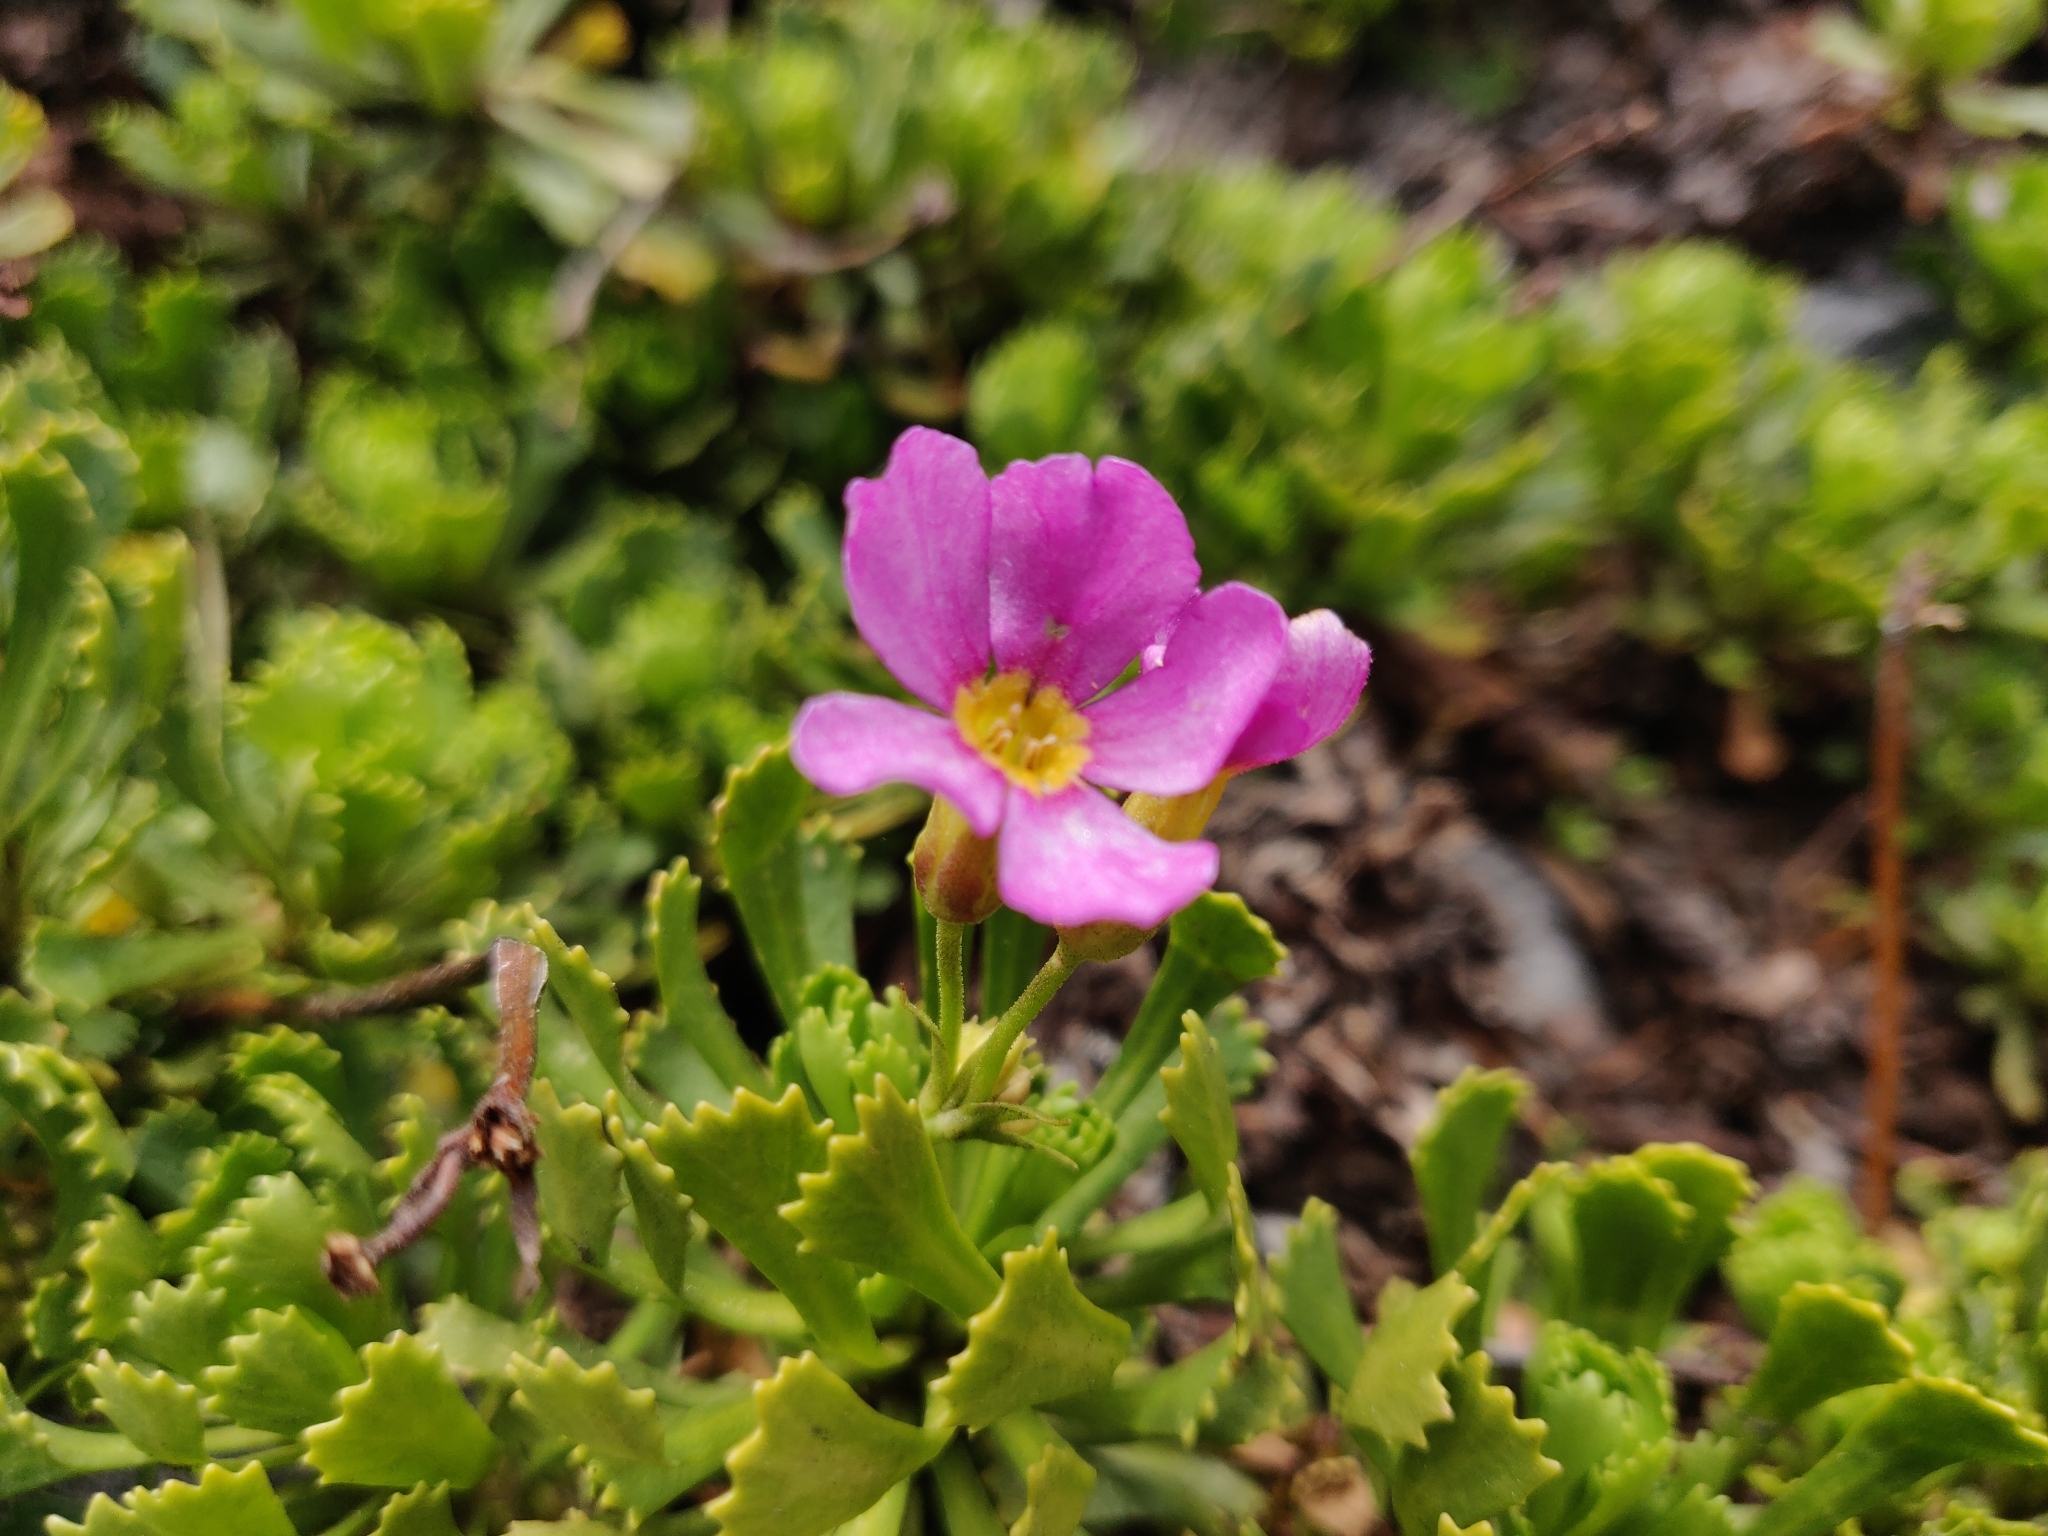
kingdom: Plantae
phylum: Tracheophyta
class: Magnoliopsida
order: Ericales
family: Primulaceae
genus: Primula
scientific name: Primula suffrutescens
